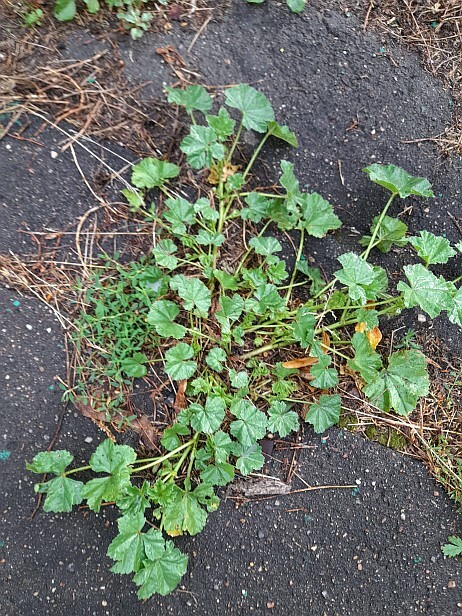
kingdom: Plantae
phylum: Tracheophyta
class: Magnoliopsida
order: Malvales
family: Malvaceae
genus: Malva
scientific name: Malva pusilla
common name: Small mallow
